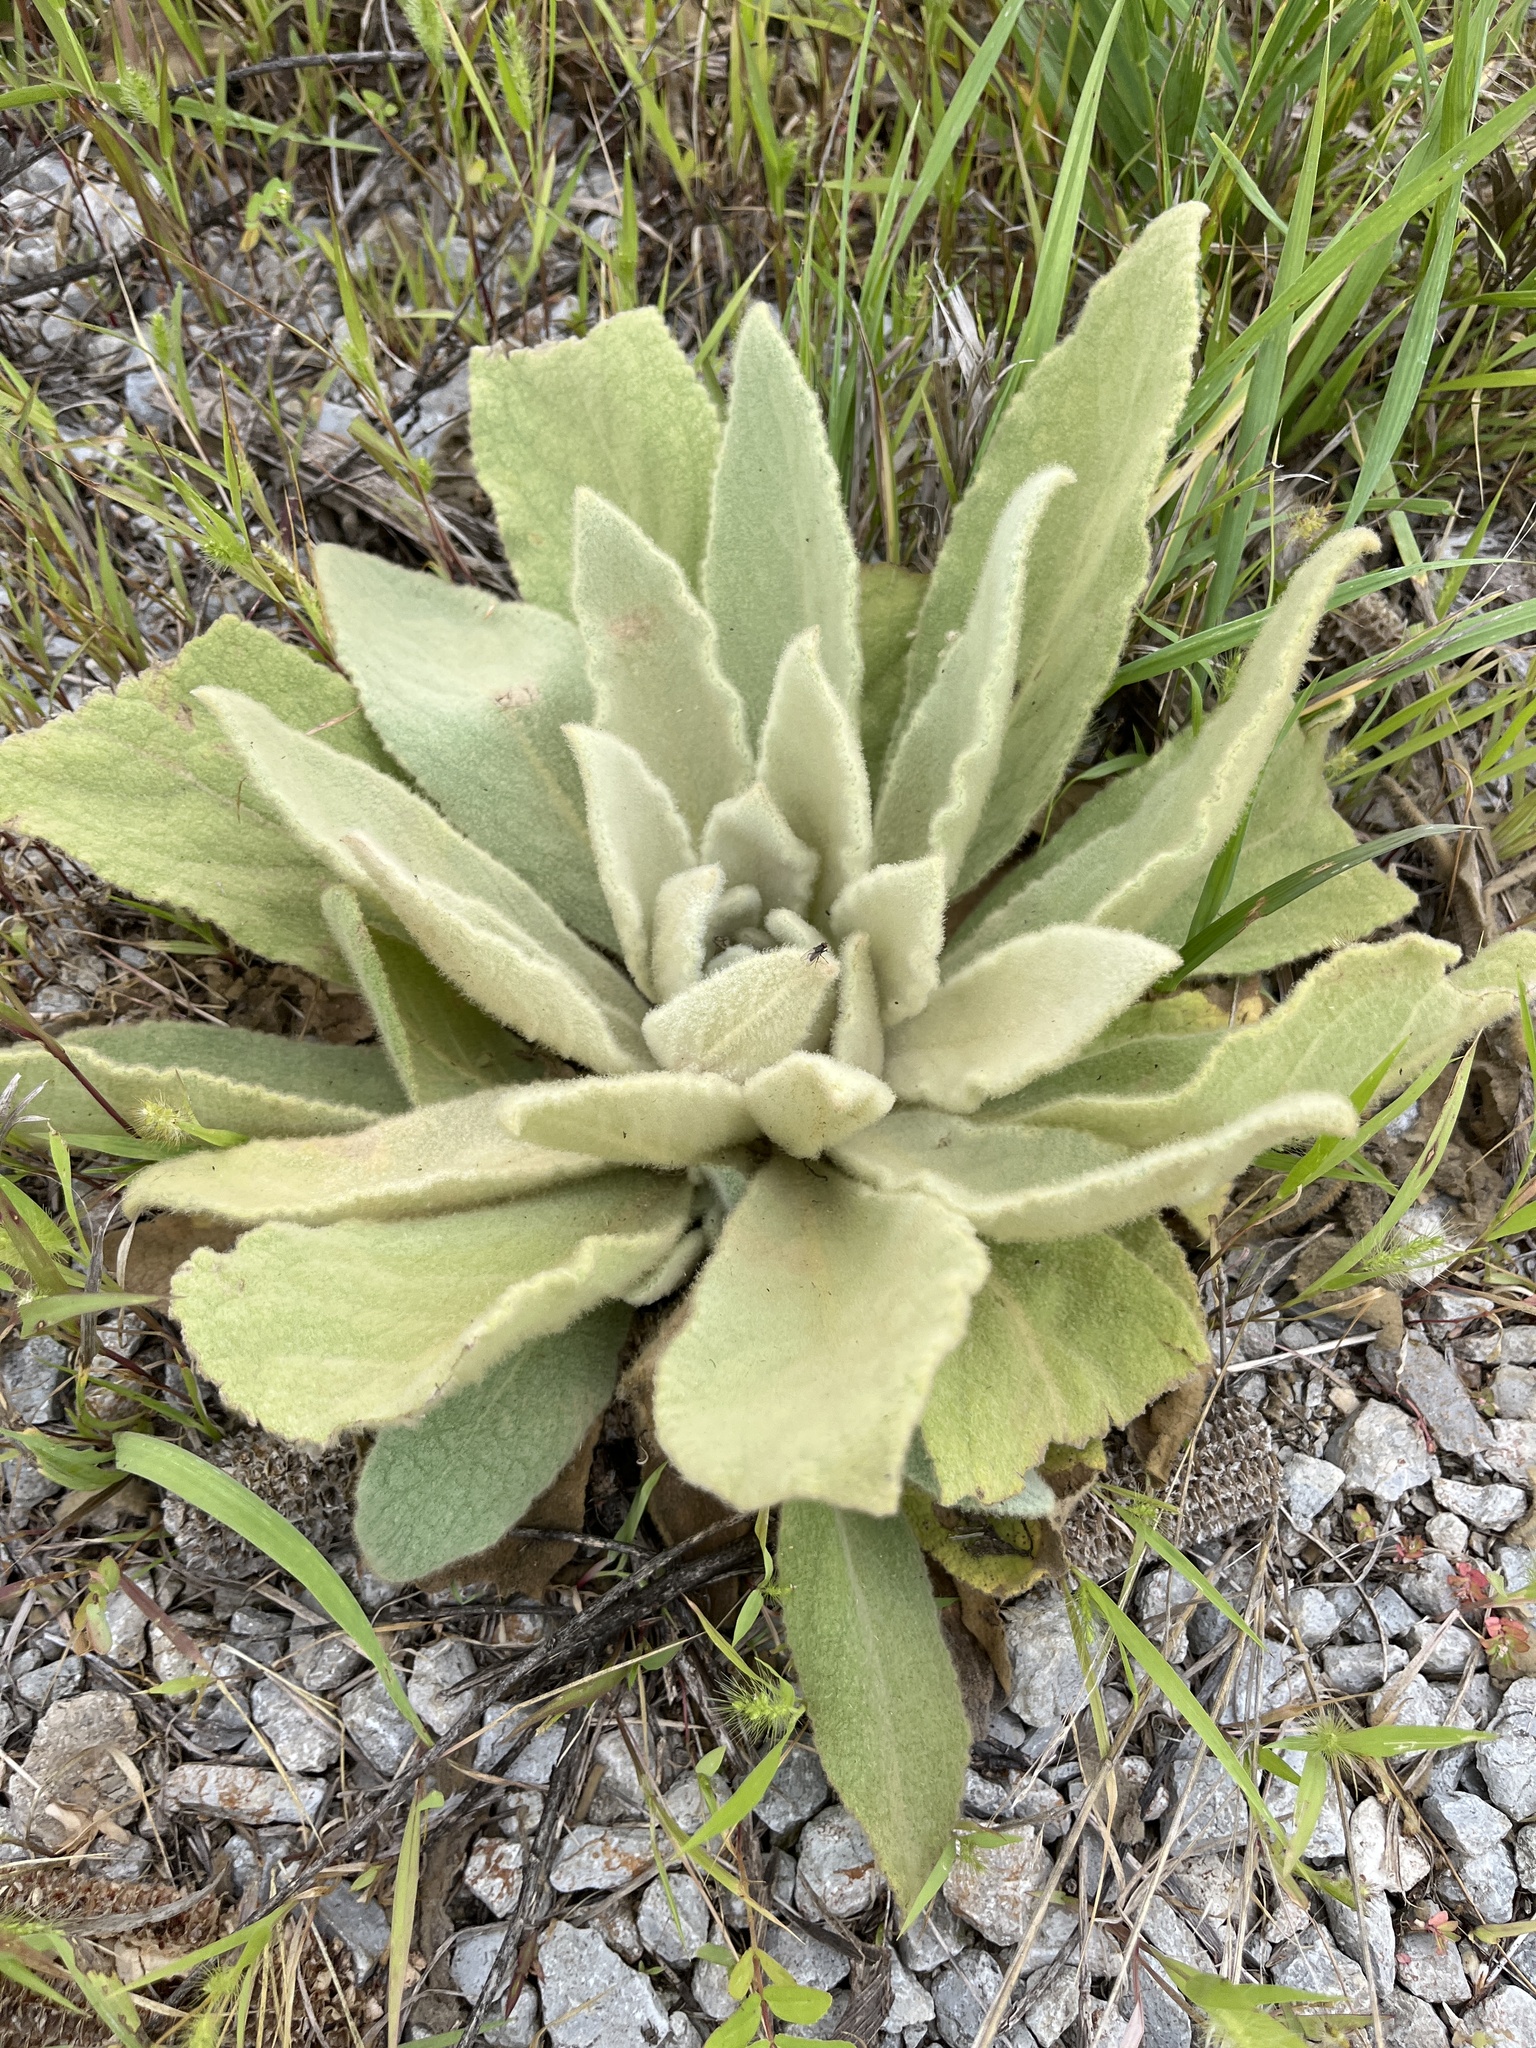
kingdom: Plantae
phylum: Tracheophyta
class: Magnoliopsida
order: Lamiales
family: Scrophulariaceae
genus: Verbascum
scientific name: Verbascum thapsus
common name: Common mullein
